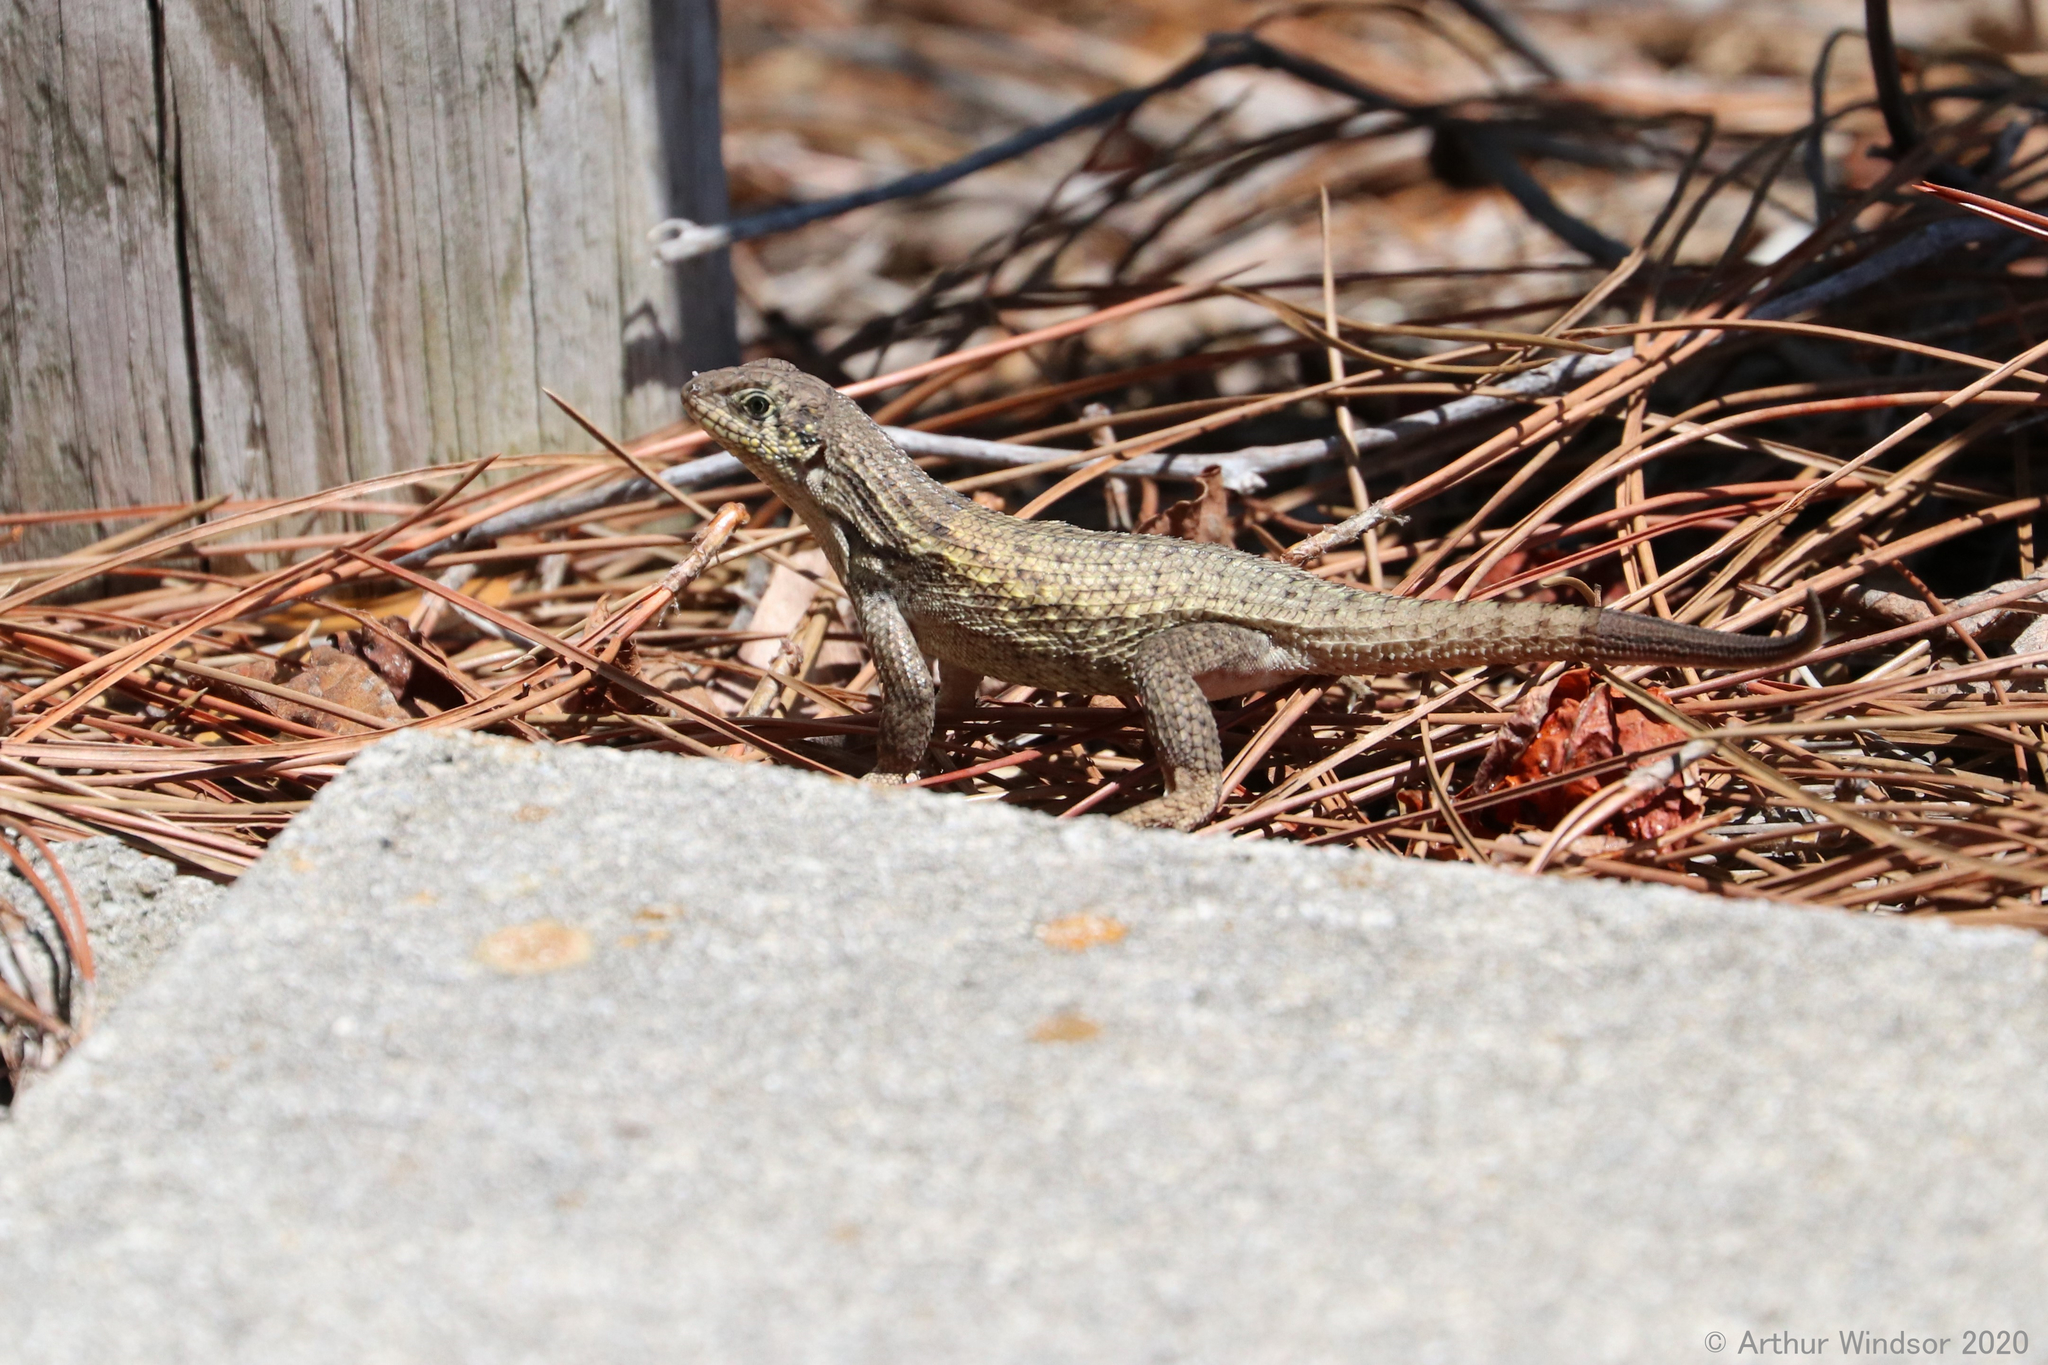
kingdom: Animalia
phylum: Chordata
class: Squamata
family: Leiocephalidae
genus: Leiocephalus
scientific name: Leiocephalus carinatus
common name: Northern curly-tailed lizard
